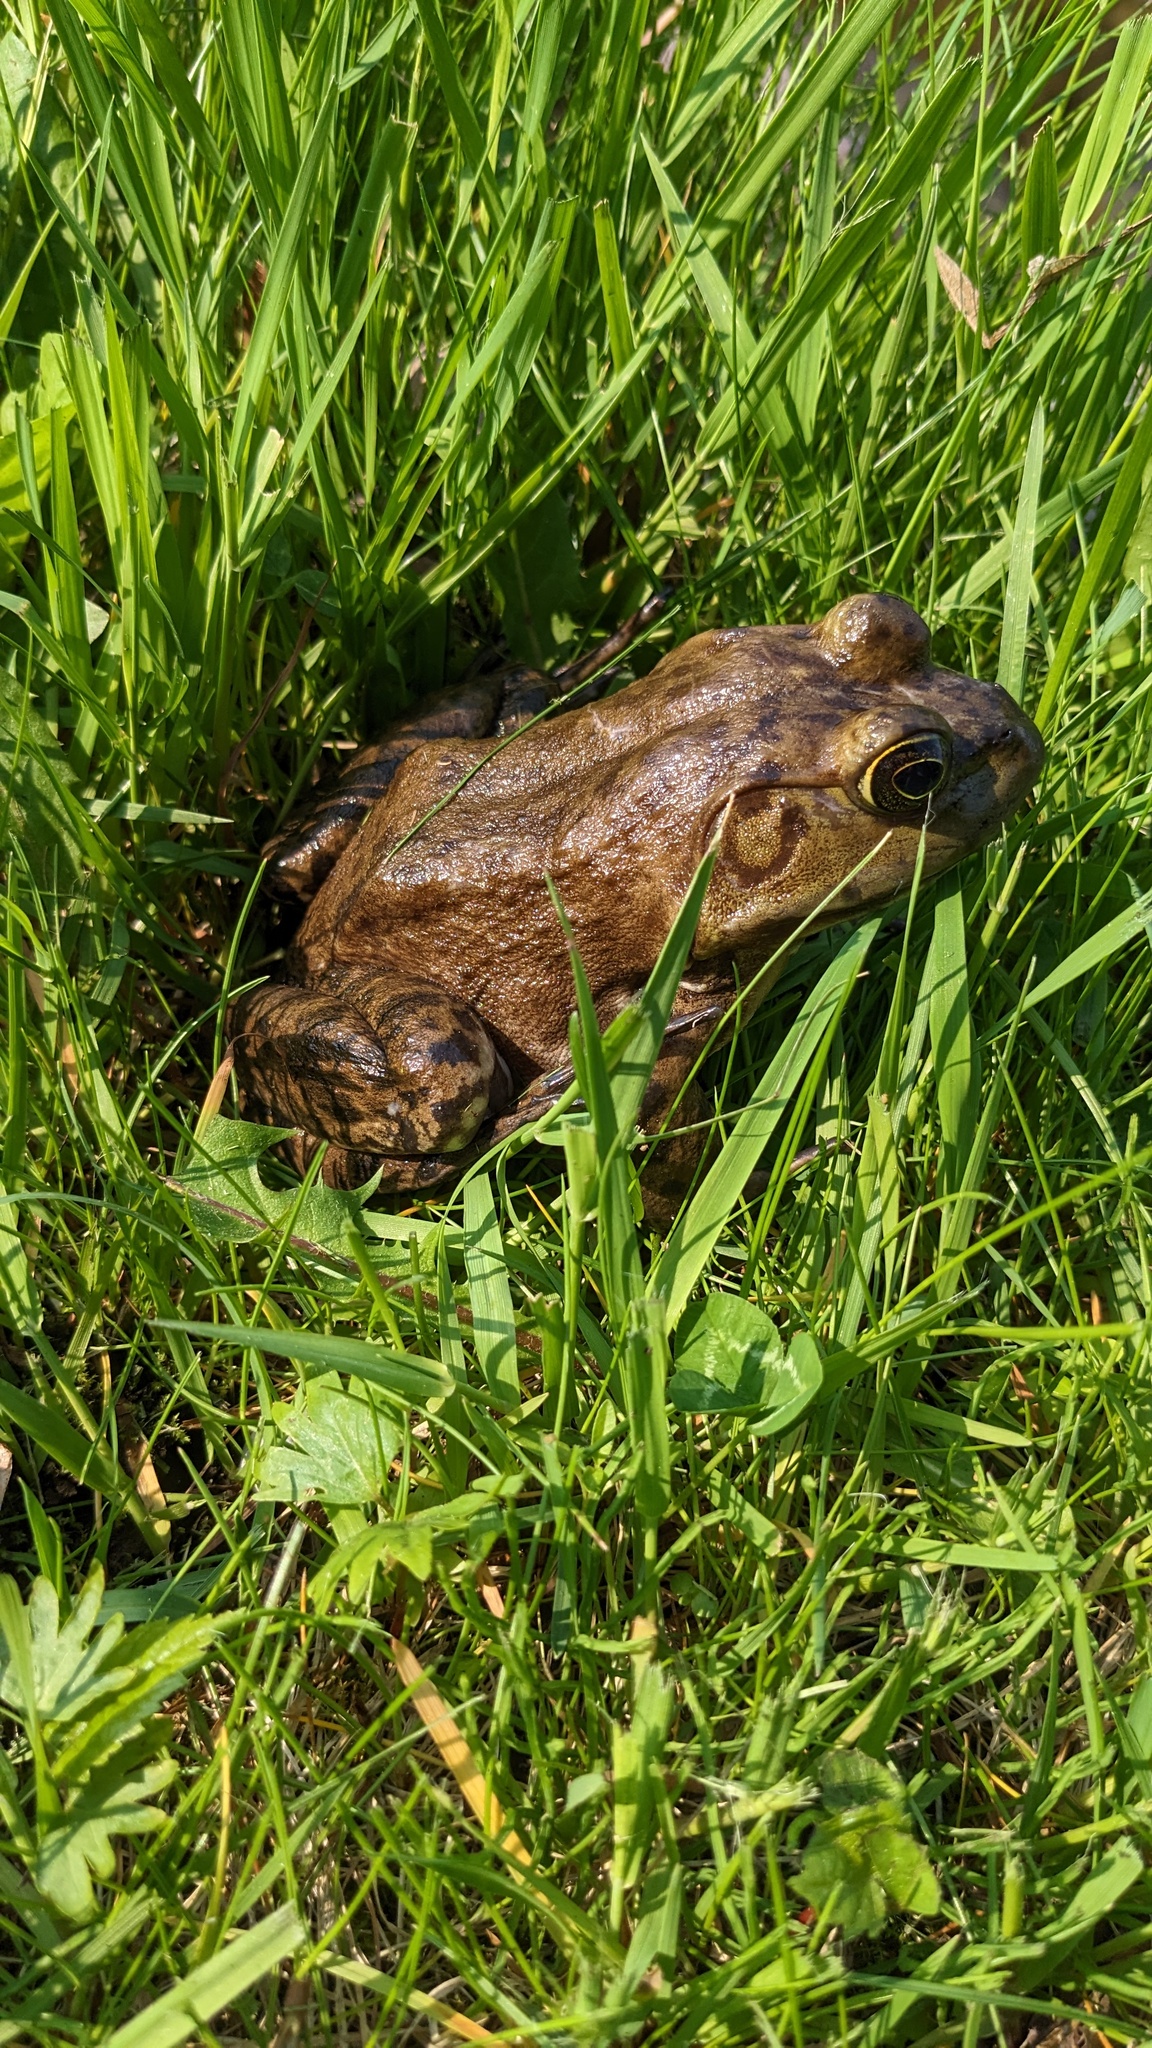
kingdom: Animalia
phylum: Chordata
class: Amphibia
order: Anura
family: Ranidae
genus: Lithobates
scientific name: Lithobates catesbeianus
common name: American bullfrog
